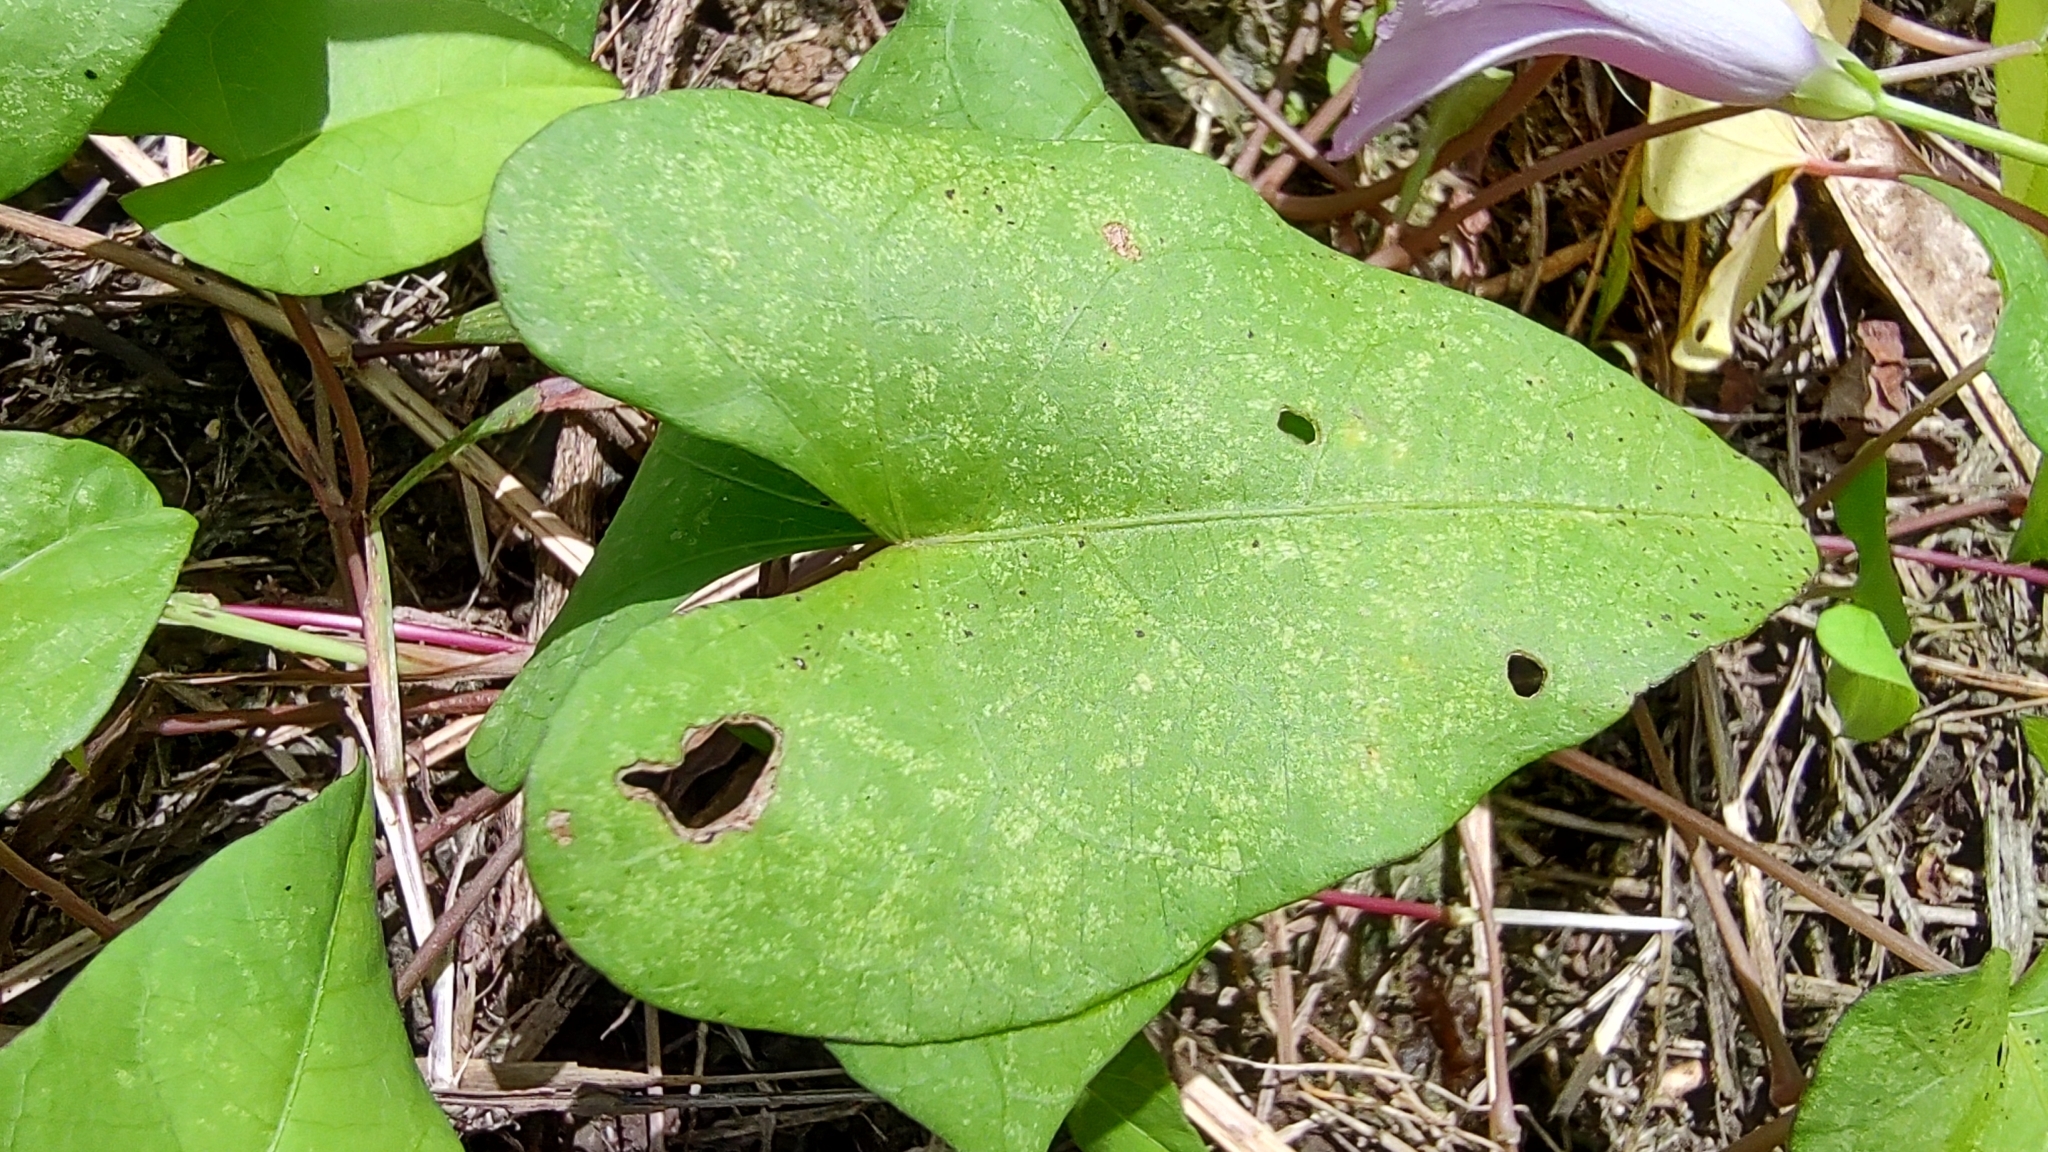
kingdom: Plantae
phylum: Tracheophyta
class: Magnoliopsida
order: Solanales
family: Convolvulaceae
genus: Ipomoea
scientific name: Ipomoea littoralis
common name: Coastal morning glory
